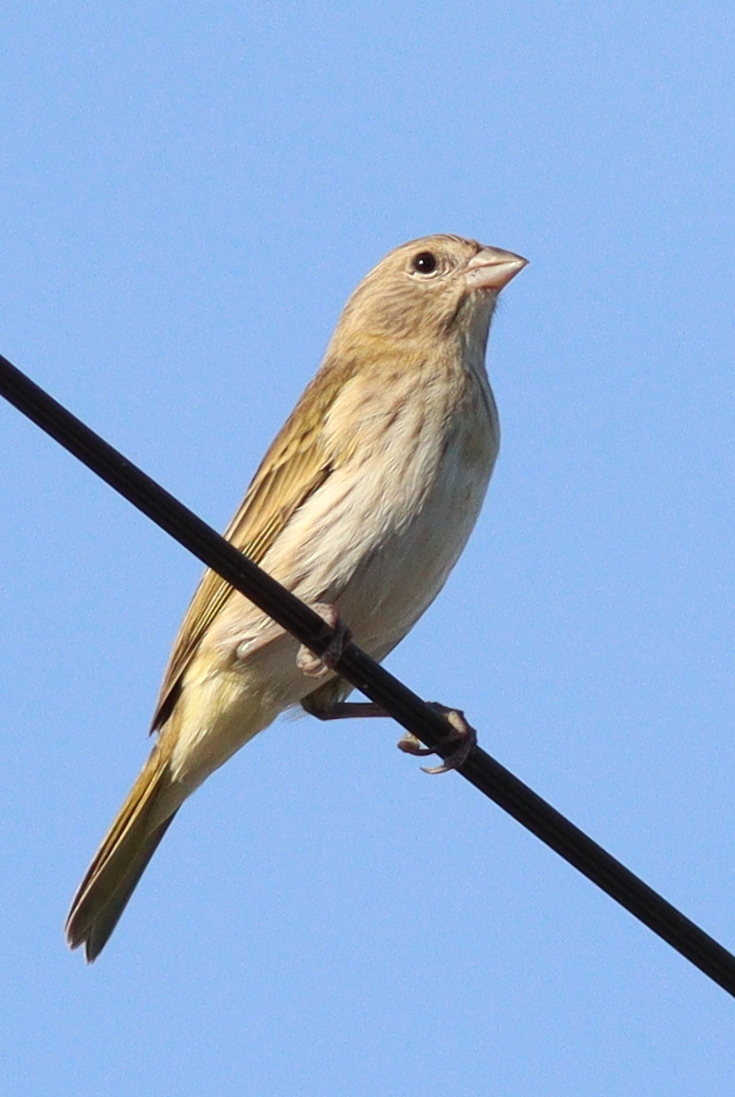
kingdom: Animalia
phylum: Chordata
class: Aves
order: Passeriformes
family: Thraupidae
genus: Sicalis
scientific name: Sicalis flaveola
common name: Saffron finch
